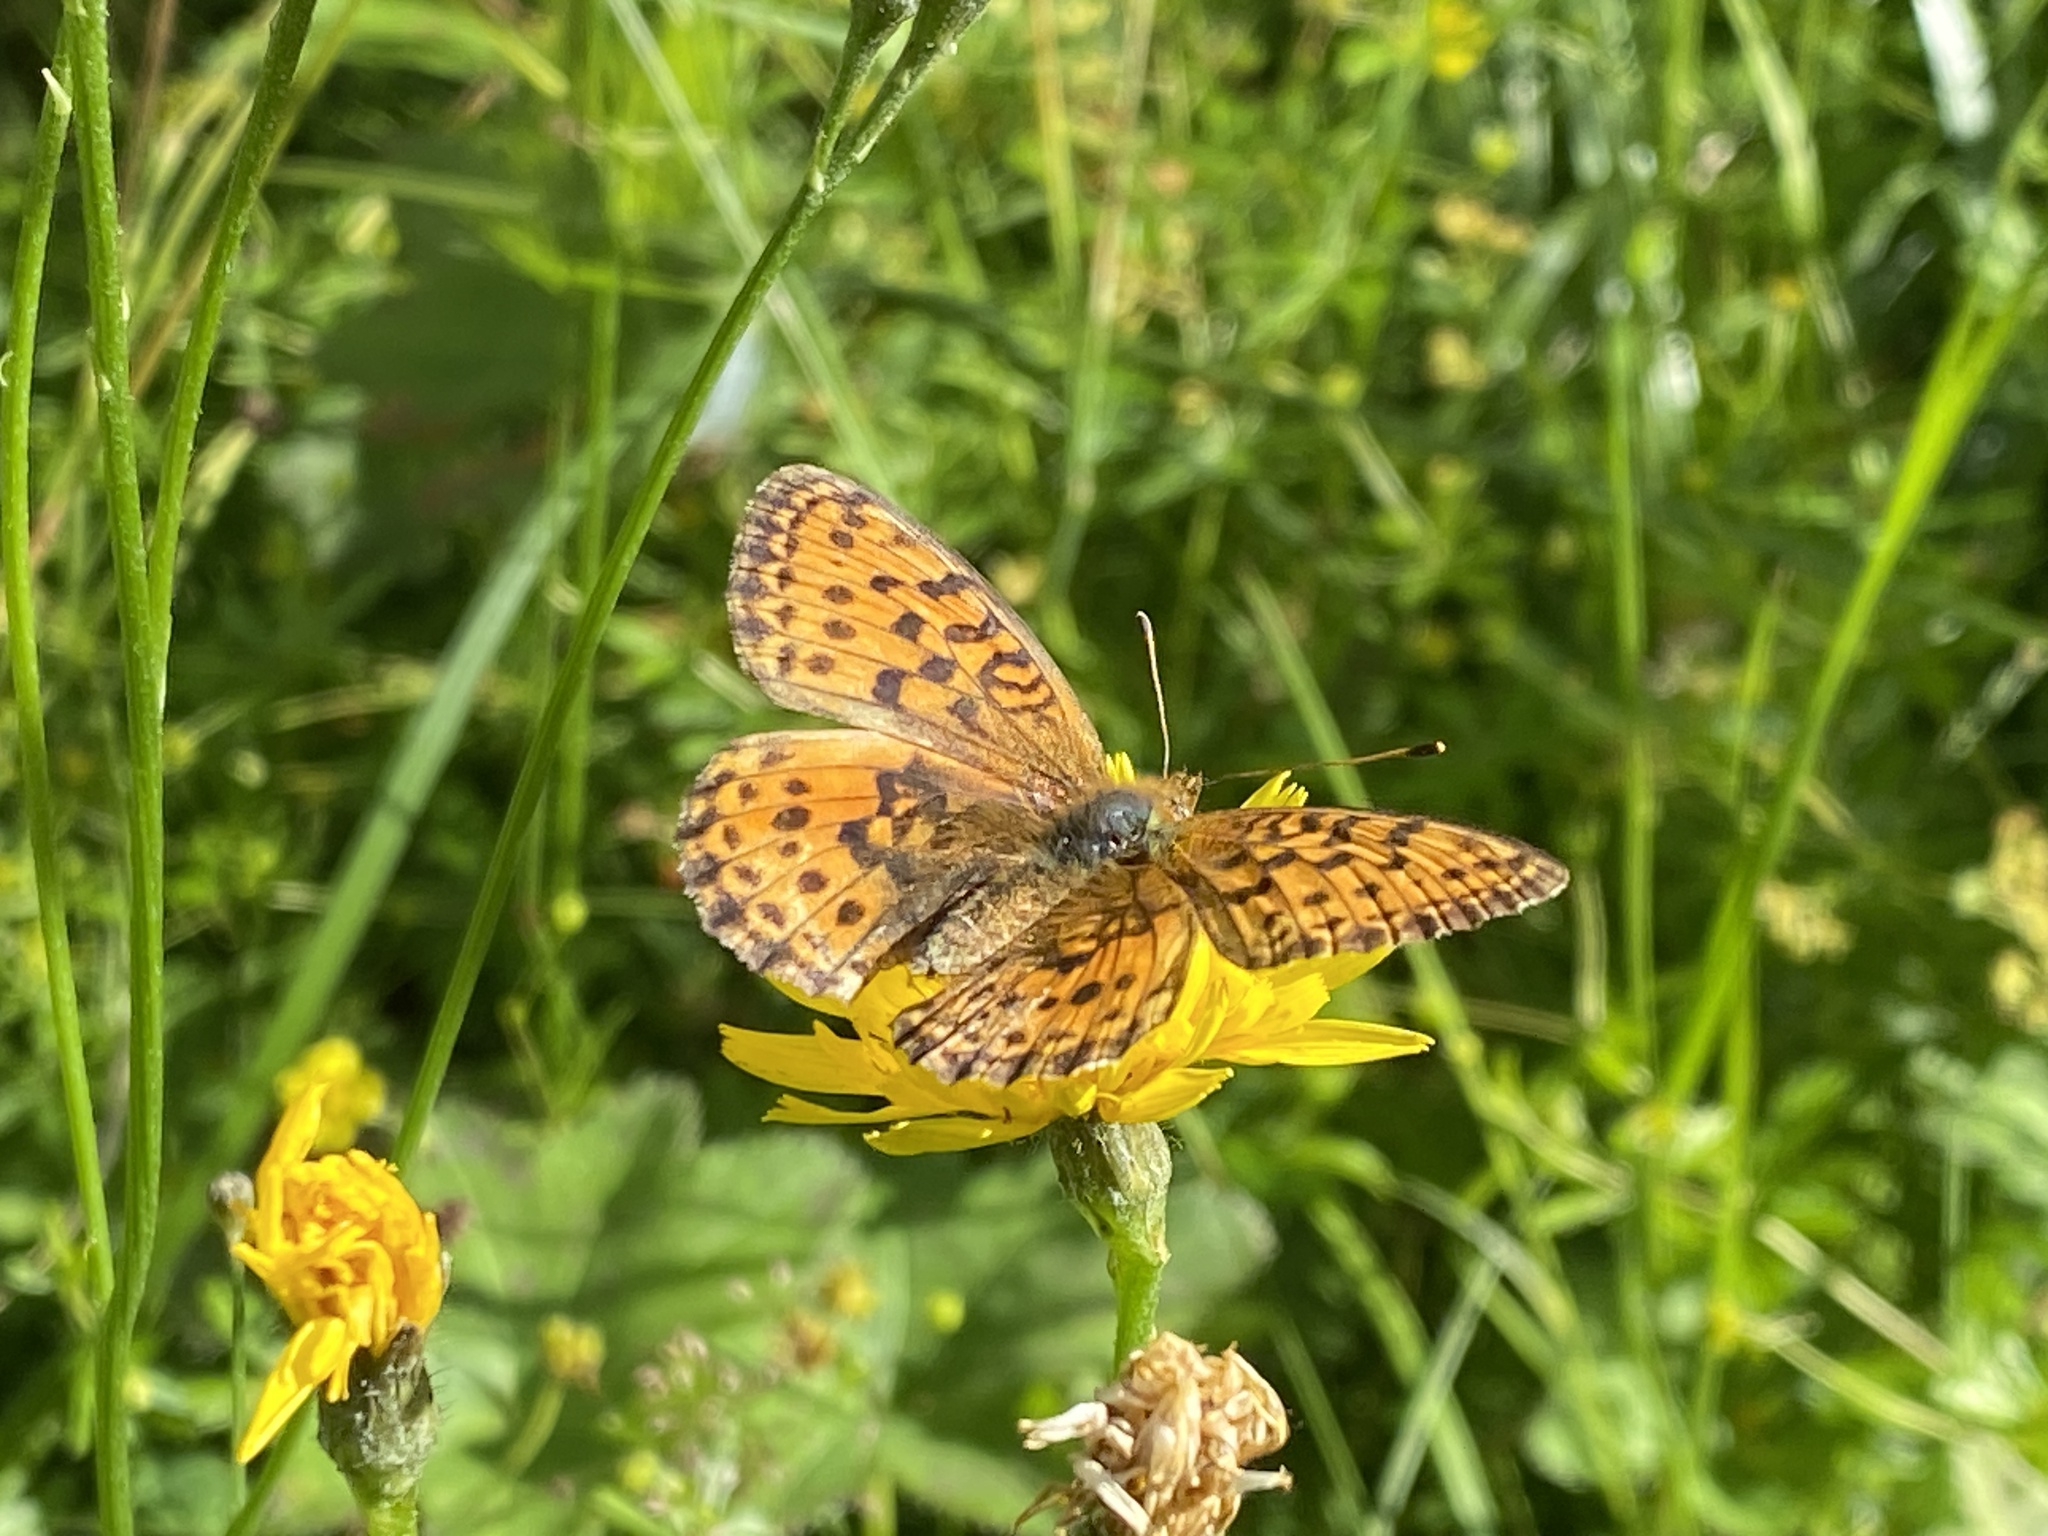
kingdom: Animalia
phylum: Arthropoda
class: Insecta
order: Lepidoptera
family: Nymphalidae
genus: Brenthis
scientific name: Brenthis ino
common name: Lesser marbled fritillary
